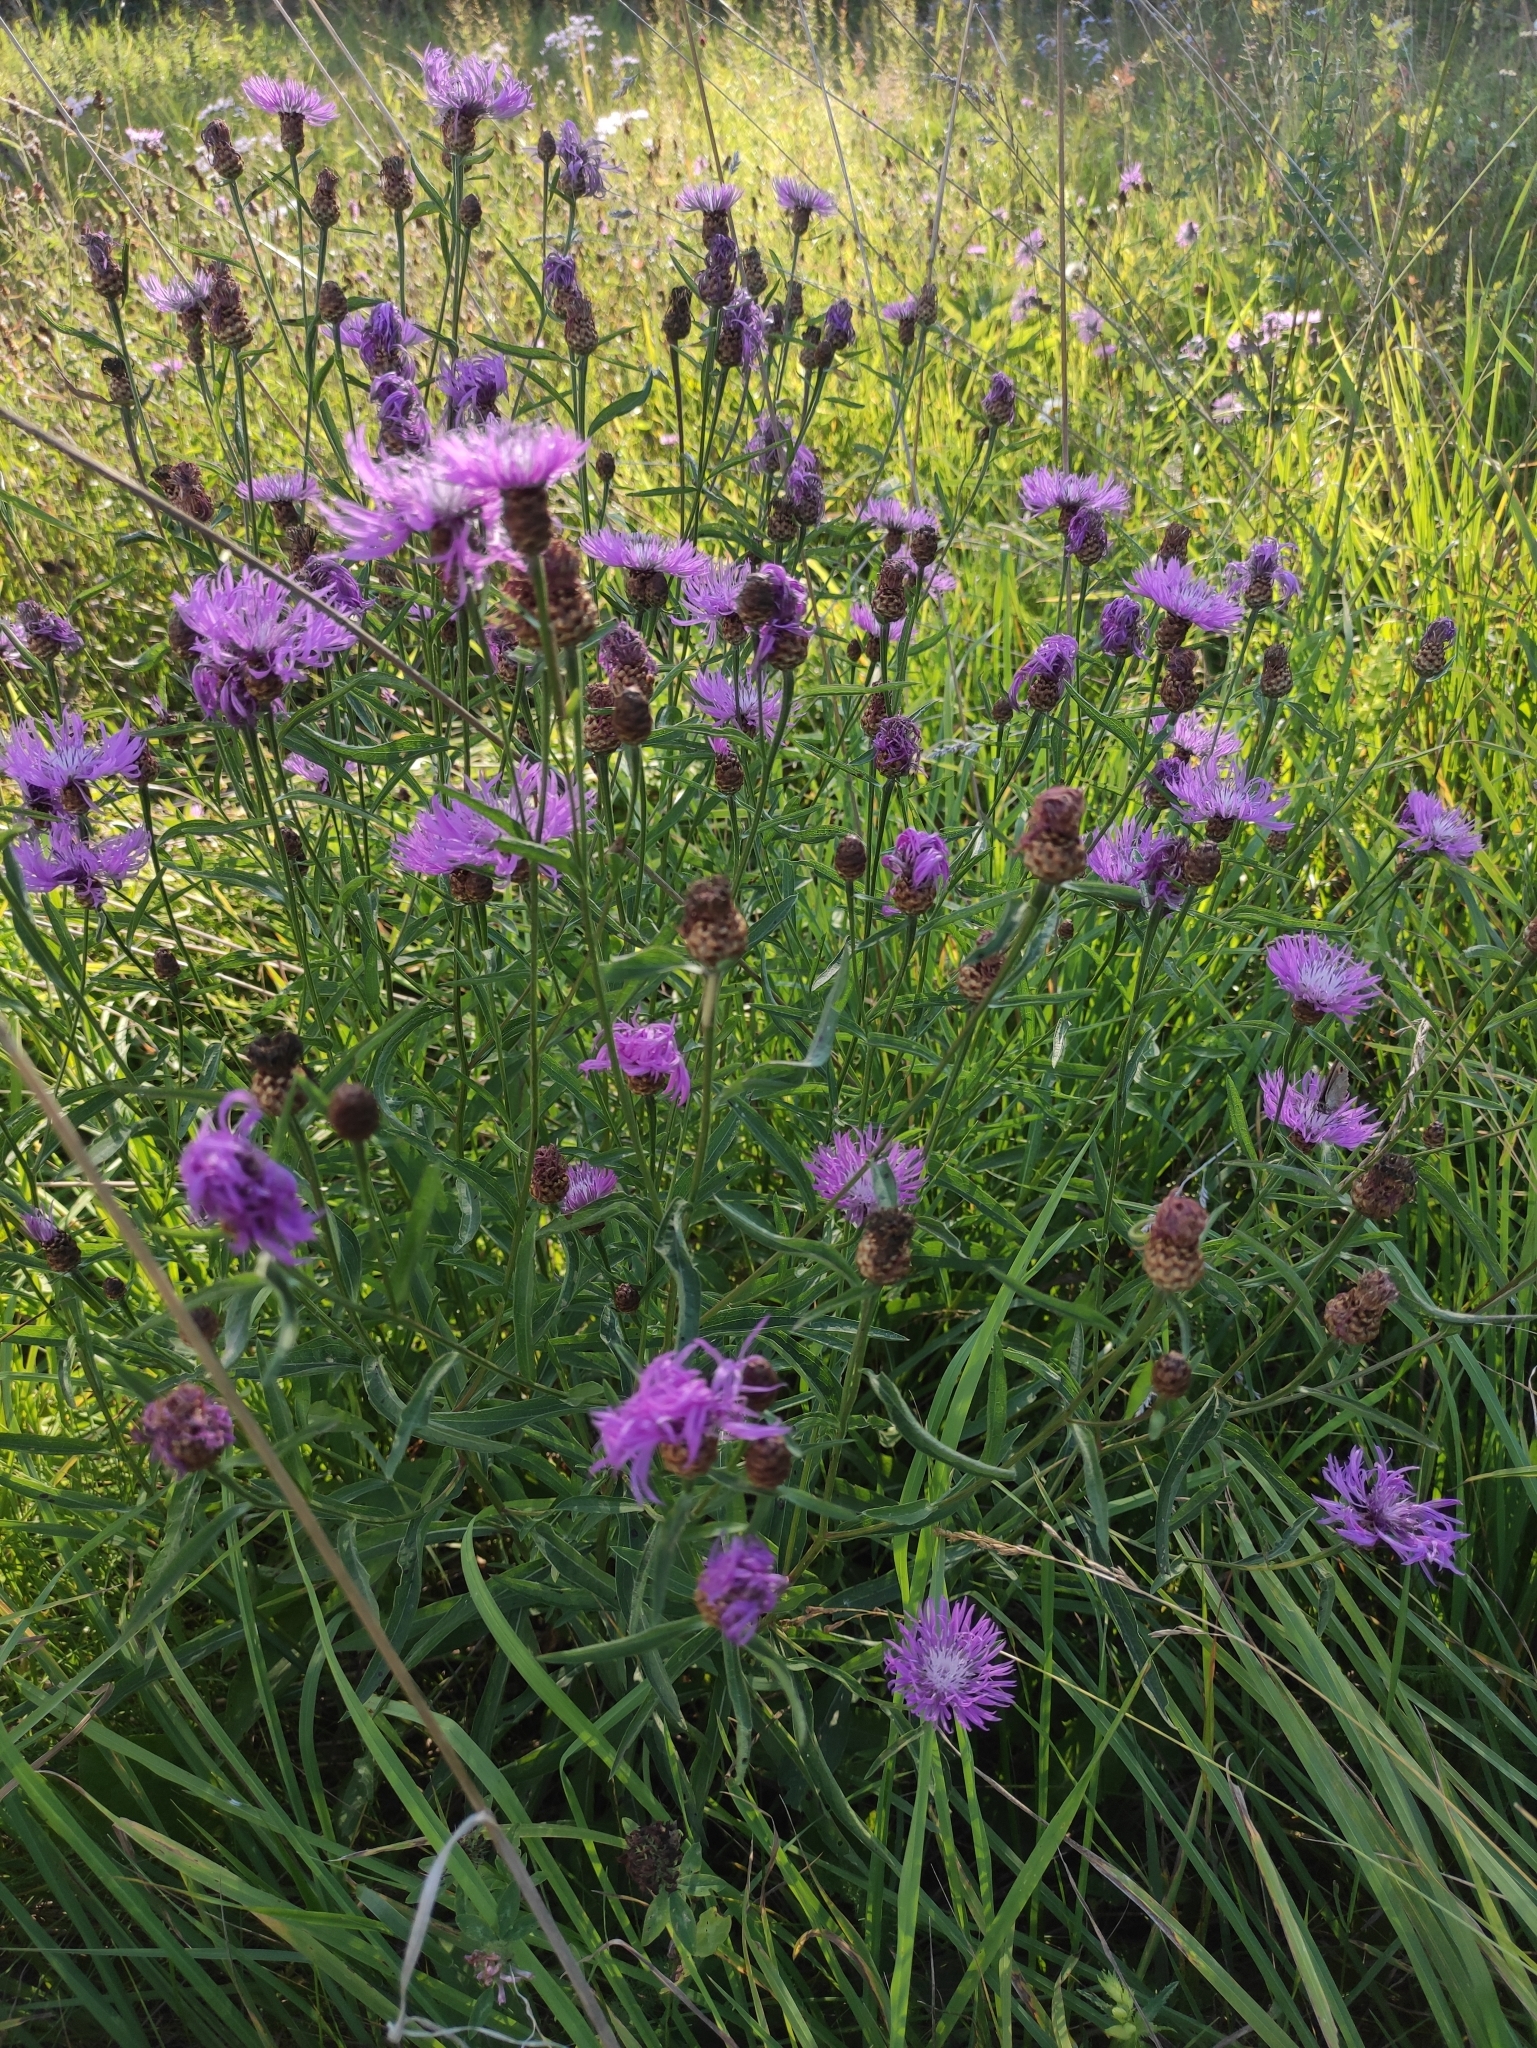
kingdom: Plantae
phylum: Tracheophyta
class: Magnoliopsida
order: Asterales
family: Asteraceae
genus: Centaurea
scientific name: Centaurea jacea
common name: Brown knapweed
